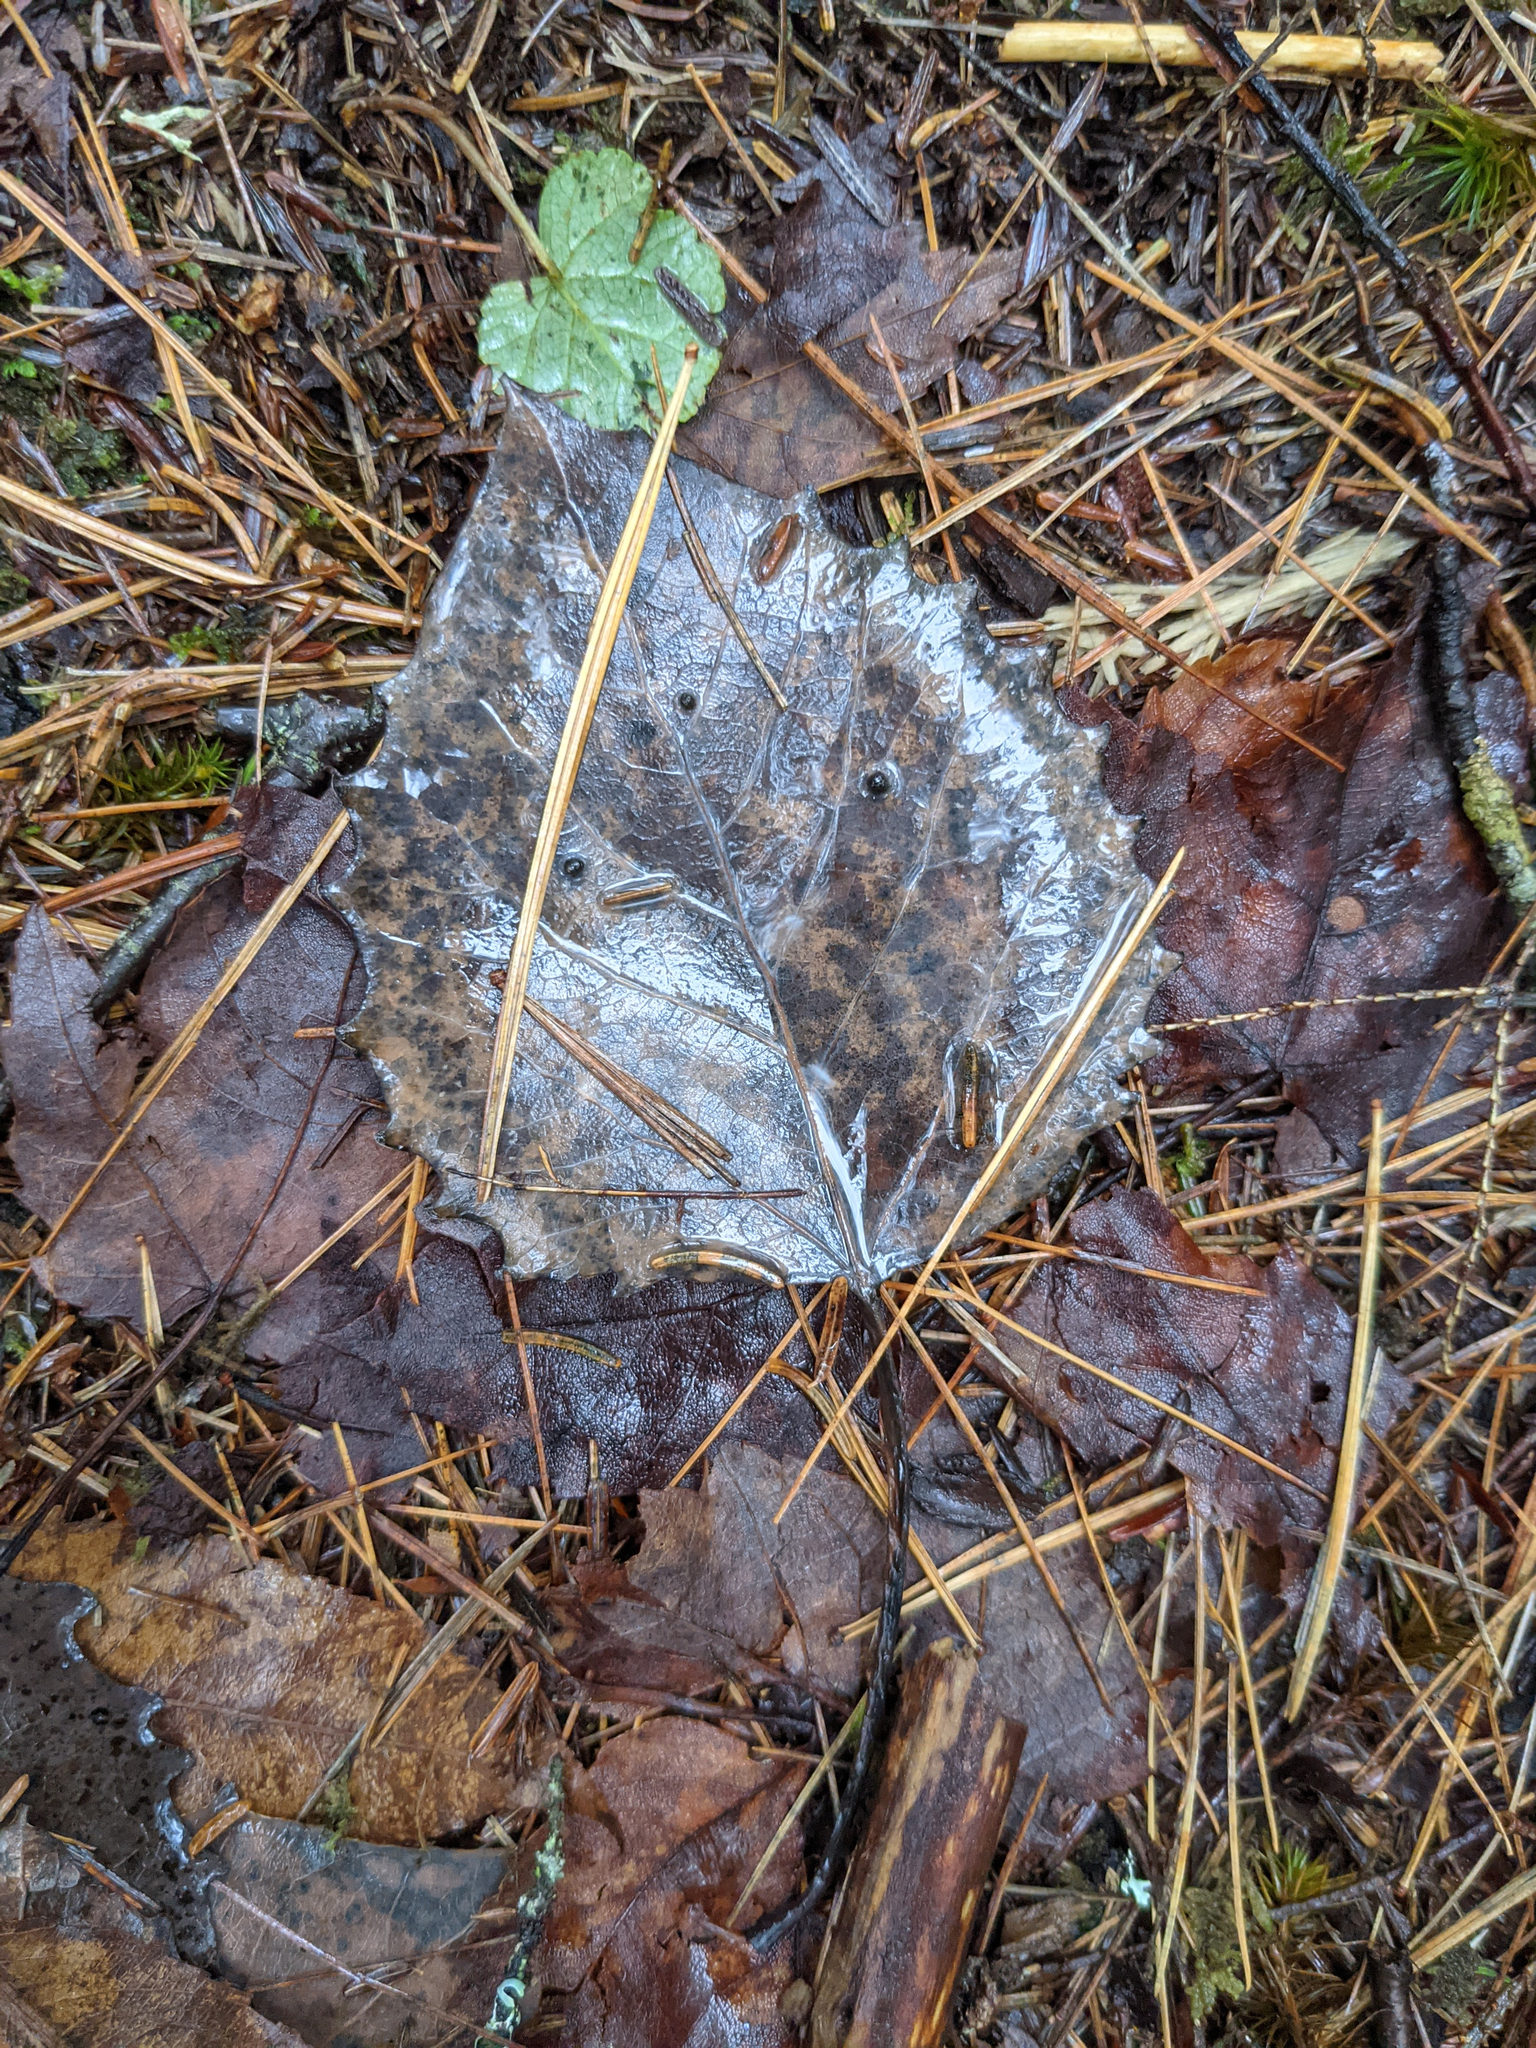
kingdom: Plantae
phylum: Tracheophyta
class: Magnoliopsida
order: Malpighiales
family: Salicaceae
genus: Populus
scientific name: Populus grandidentata
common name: Bigtooth aspen
